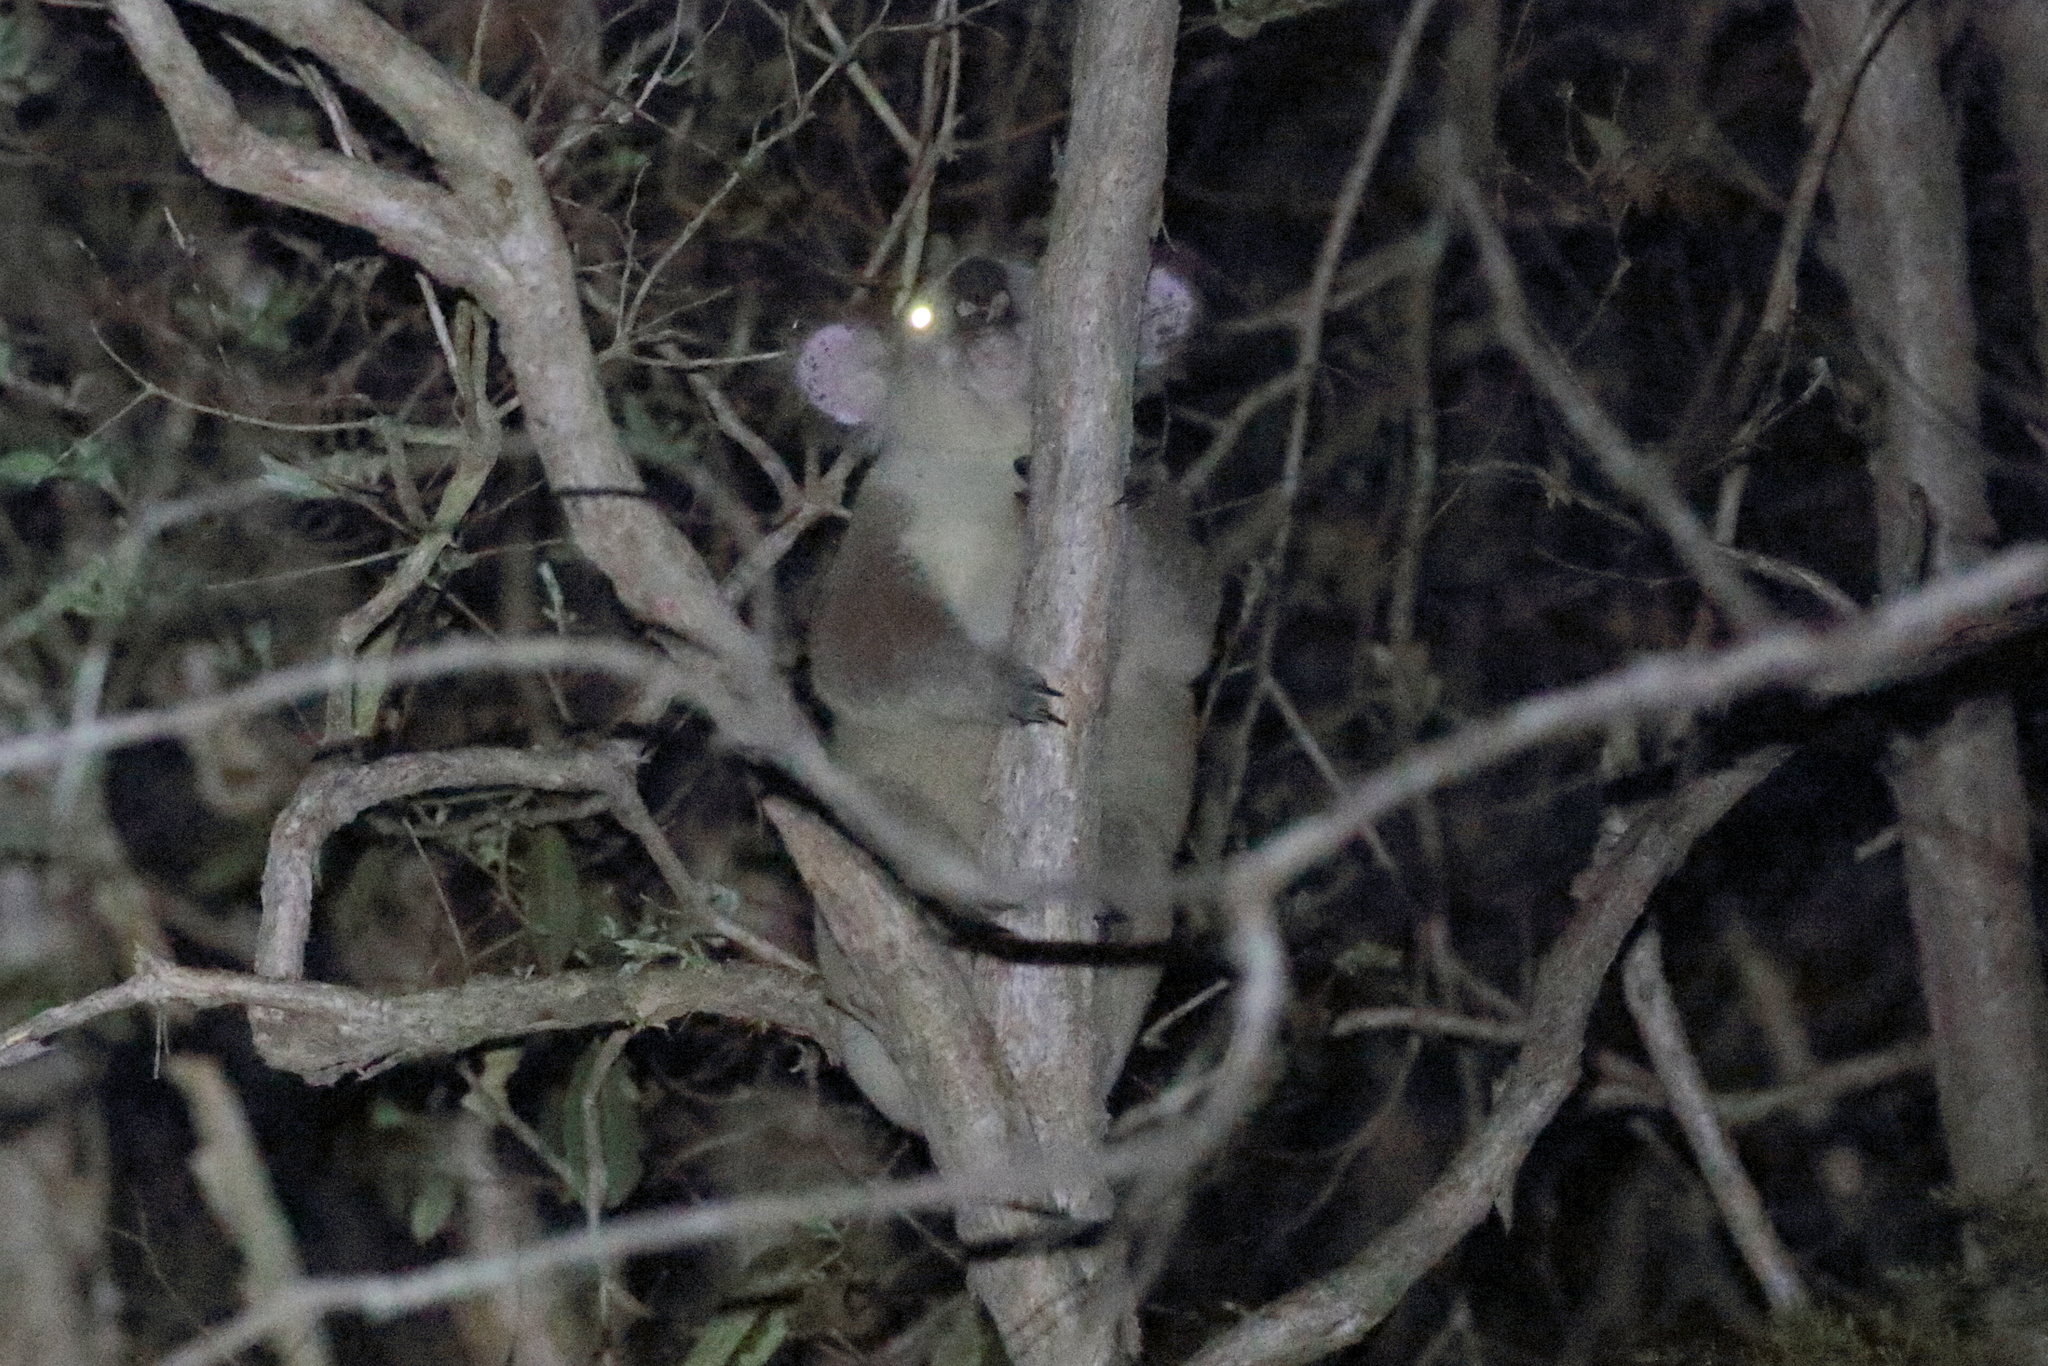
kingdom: Animalia
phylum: Chordata
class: Mammalia
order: Diprotodontia
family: Phascolarctidae
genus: Phascolarctos
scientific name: Phascolarctos cinereus
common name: Koala
